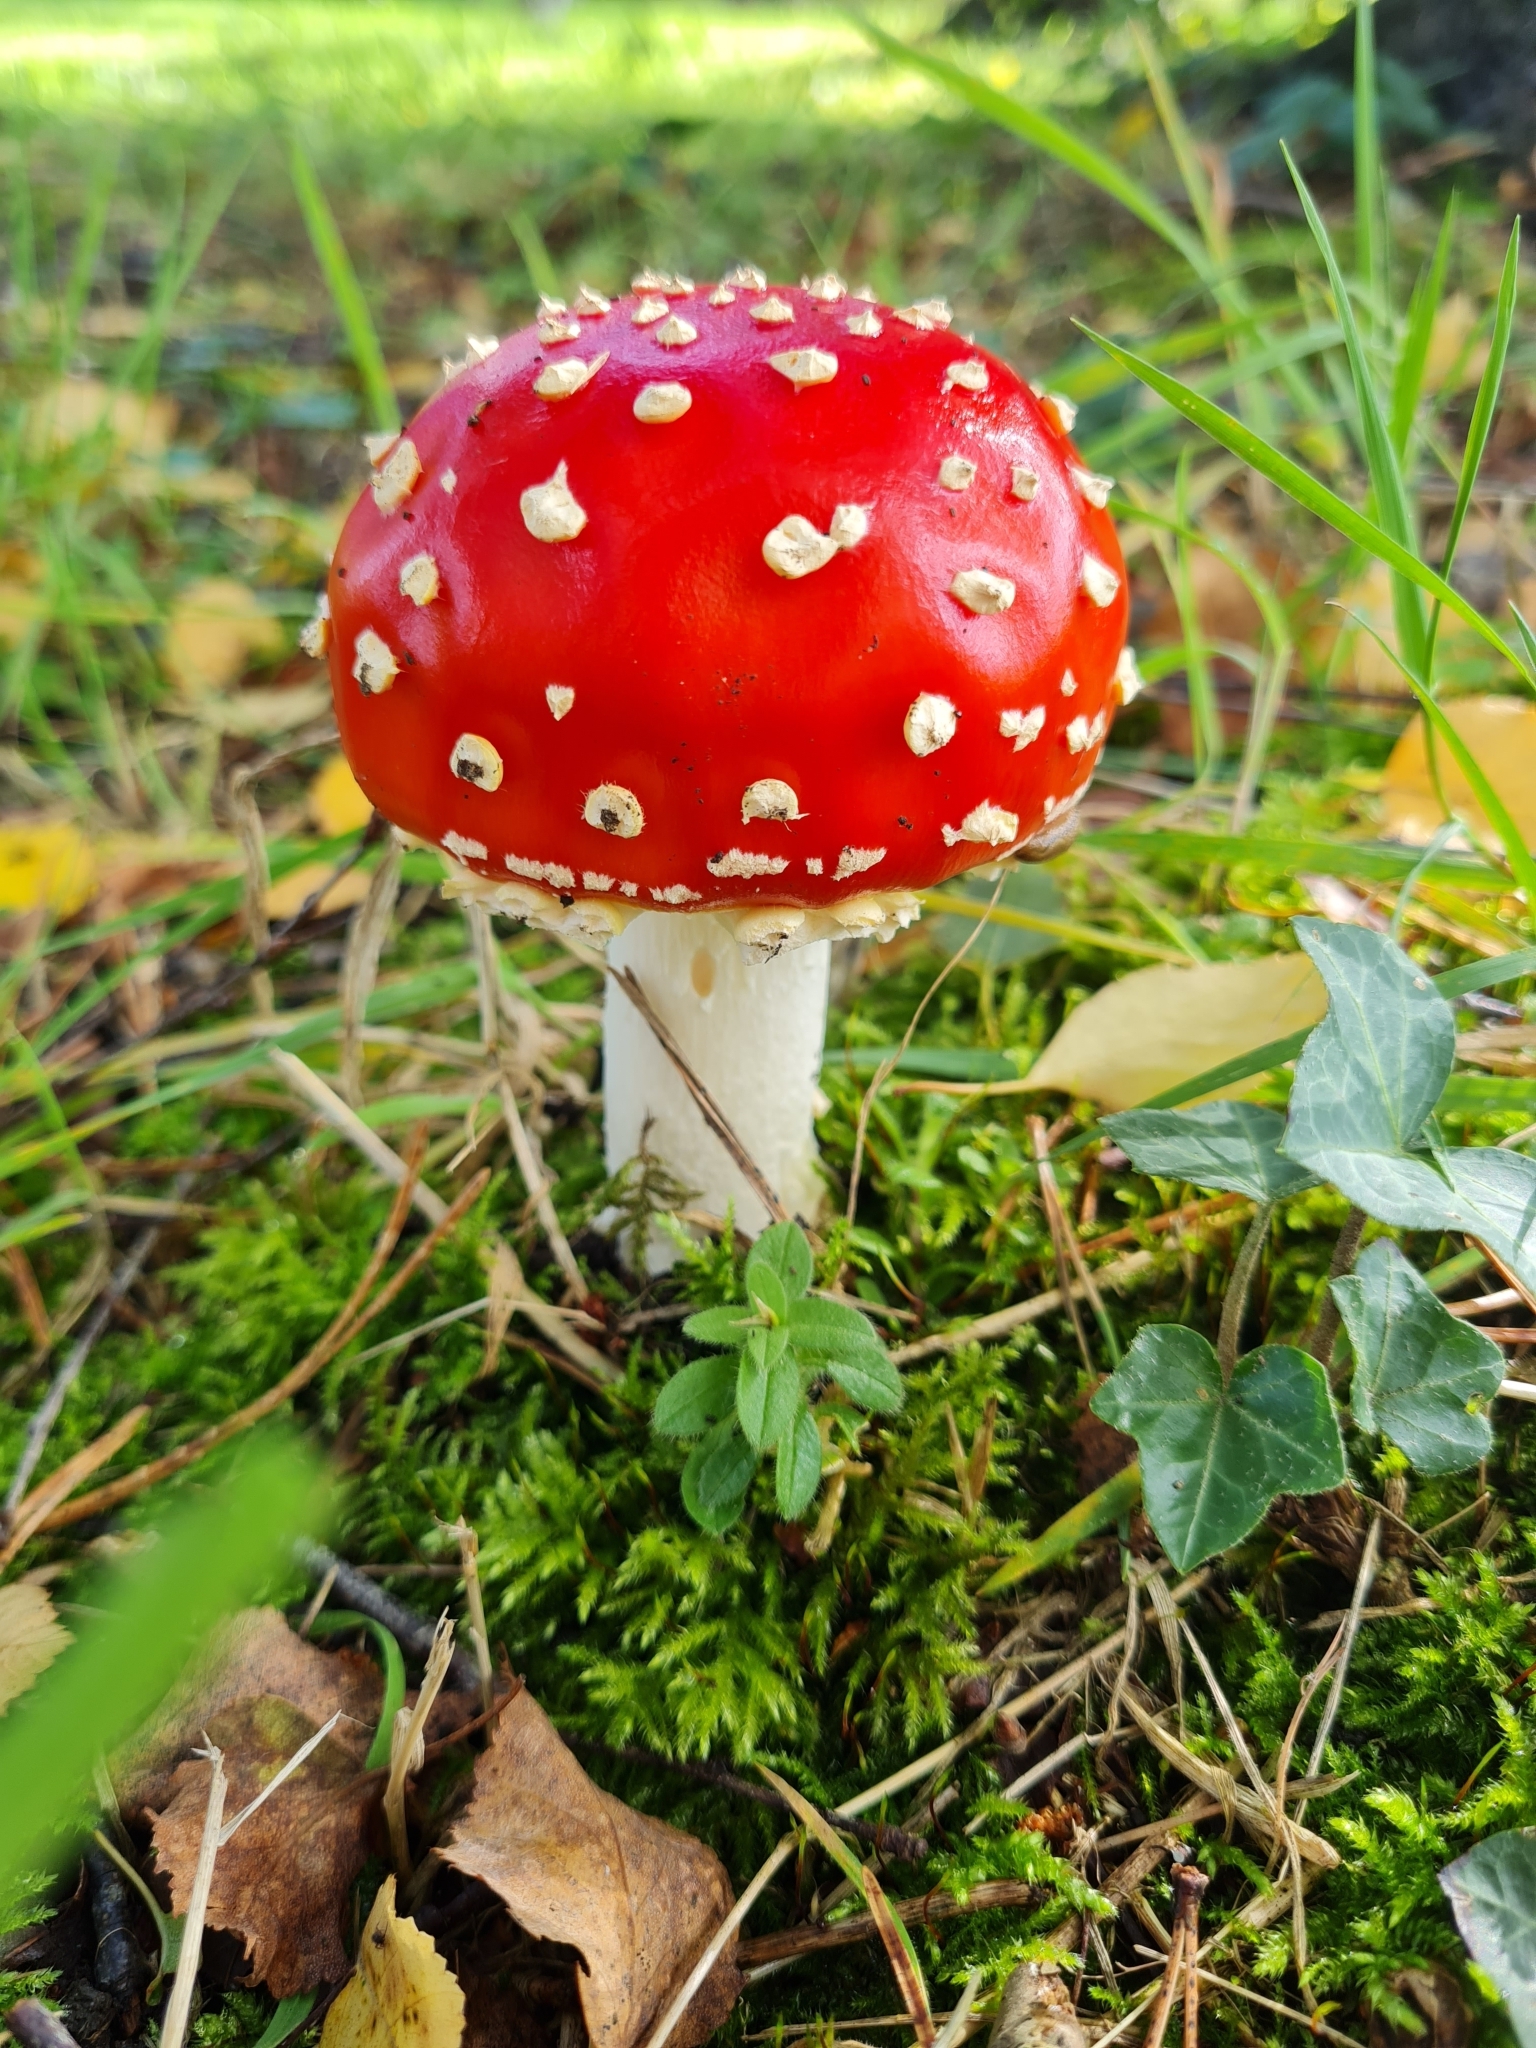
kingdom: Fungi
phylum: Basidiomycota
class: Agaricomycetes
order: Agaricales
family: Amanitaceae
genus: Amanita
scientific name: Amanita muscaria
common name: Fly agaric
